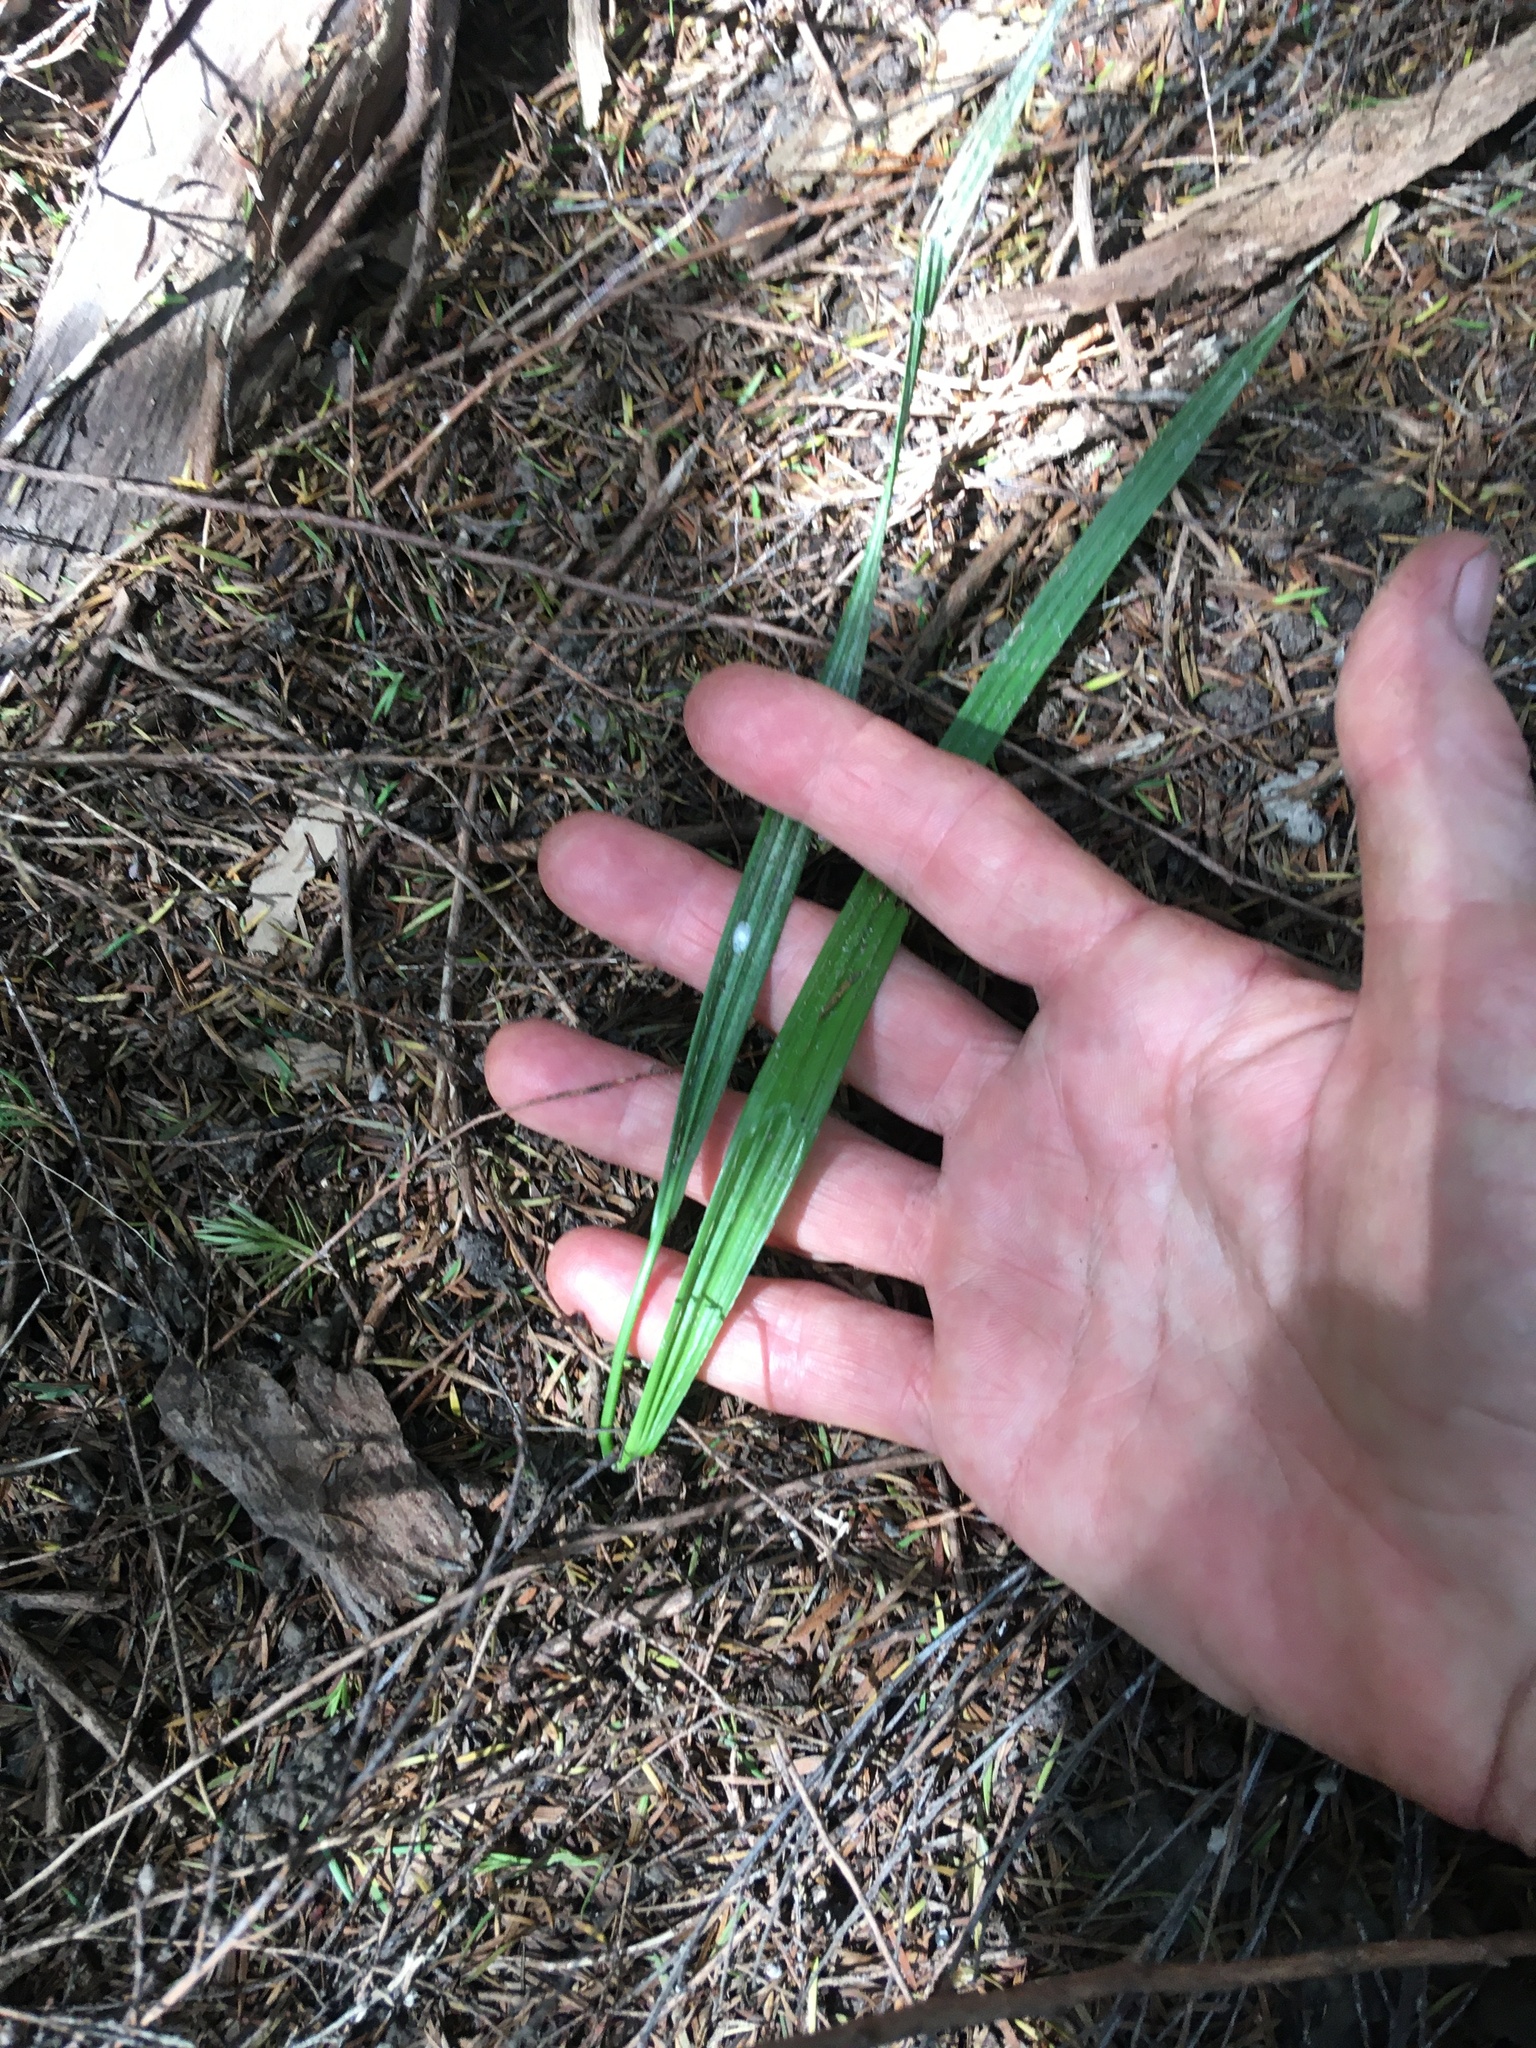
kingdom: Plantae
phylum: Tracheophyta
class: Liliopsida
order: Arecales
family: Arecaceae
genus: Phoenix
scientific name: Phoenix canariensis
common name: Canary island date palm
